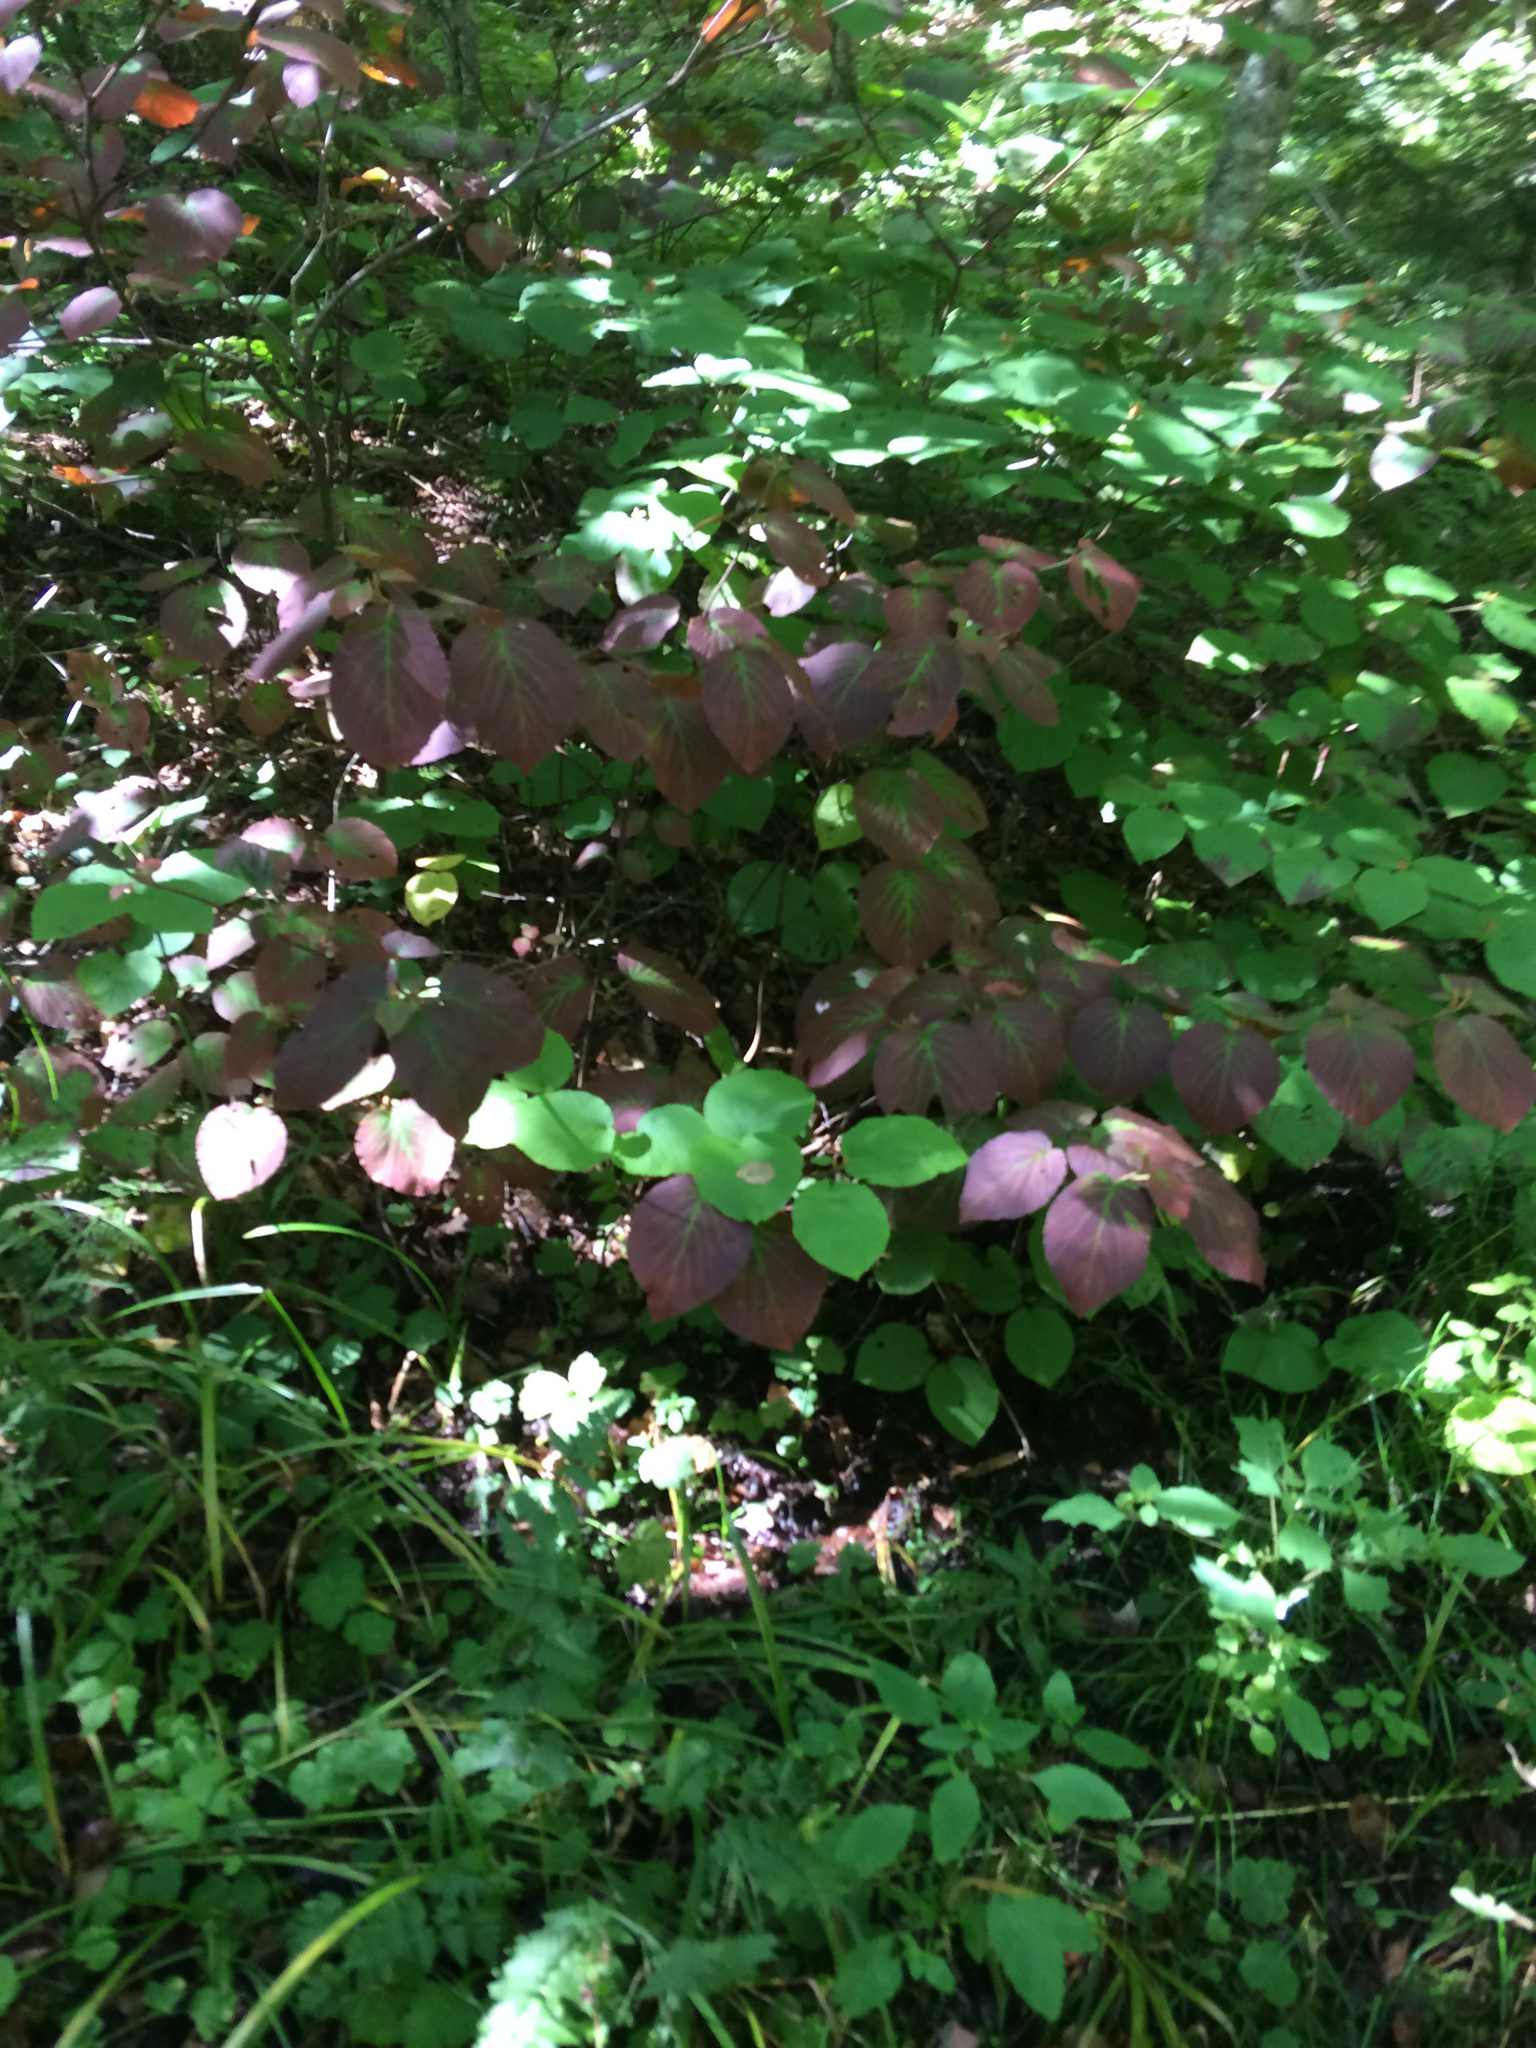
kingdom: Plantae
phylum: Tracheophyta
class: Magnoliopsida
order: Dipsacales
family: Viburnaceae
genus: Viburnum
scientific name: Viburnum lantanoides
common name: Hobblebush
